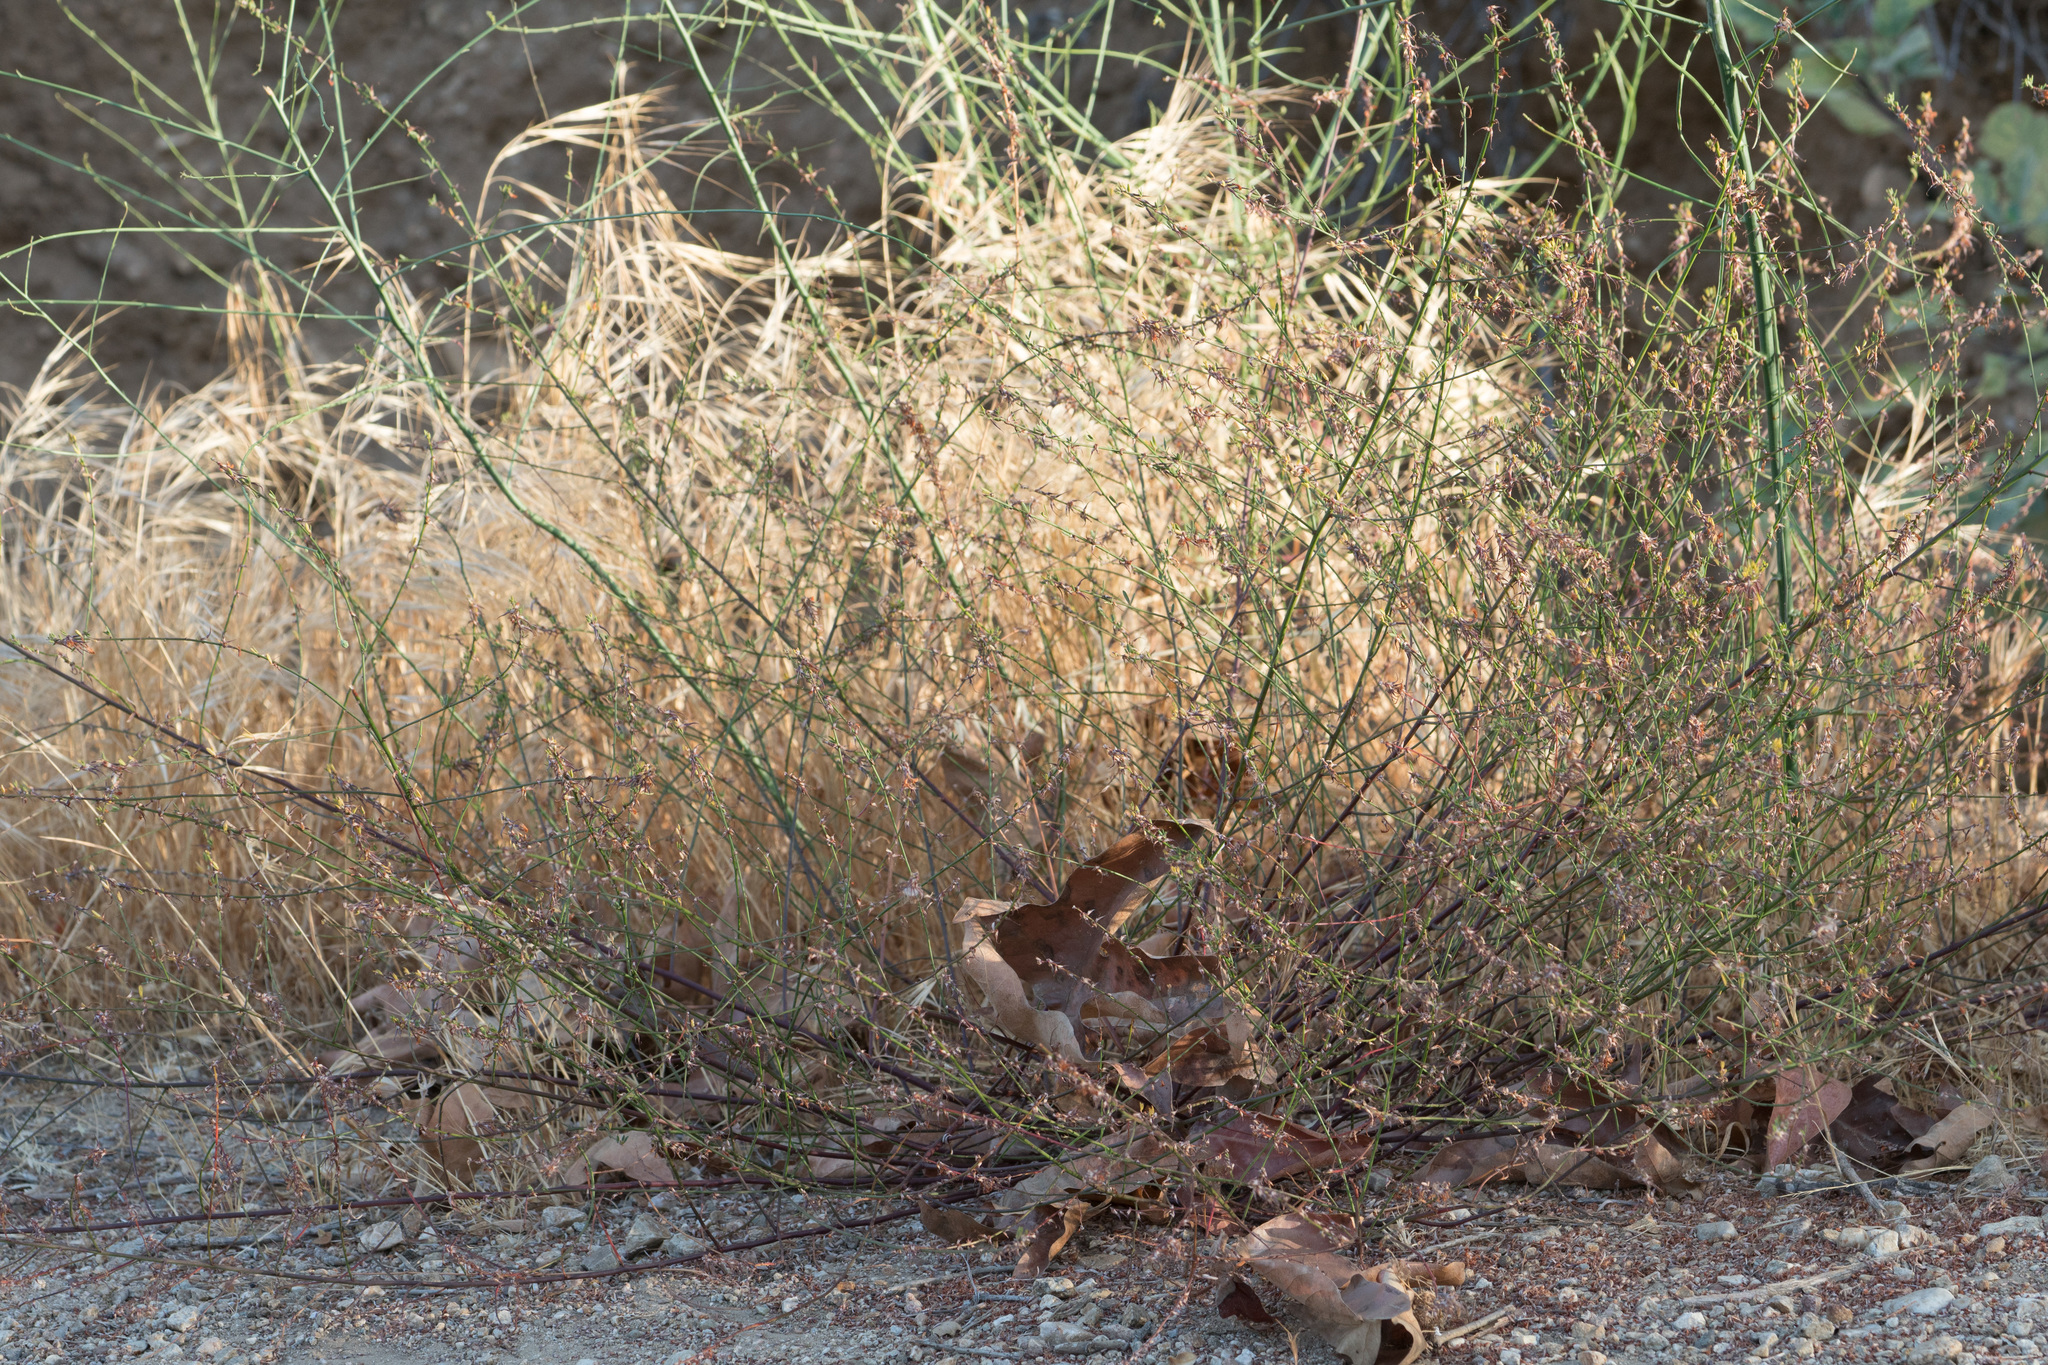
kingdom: Plantae
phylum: Tracheophyta
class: Magnoliopsida
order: Fabales
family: Fabaceae
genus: Acmispon
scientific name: Acmispon glaber
